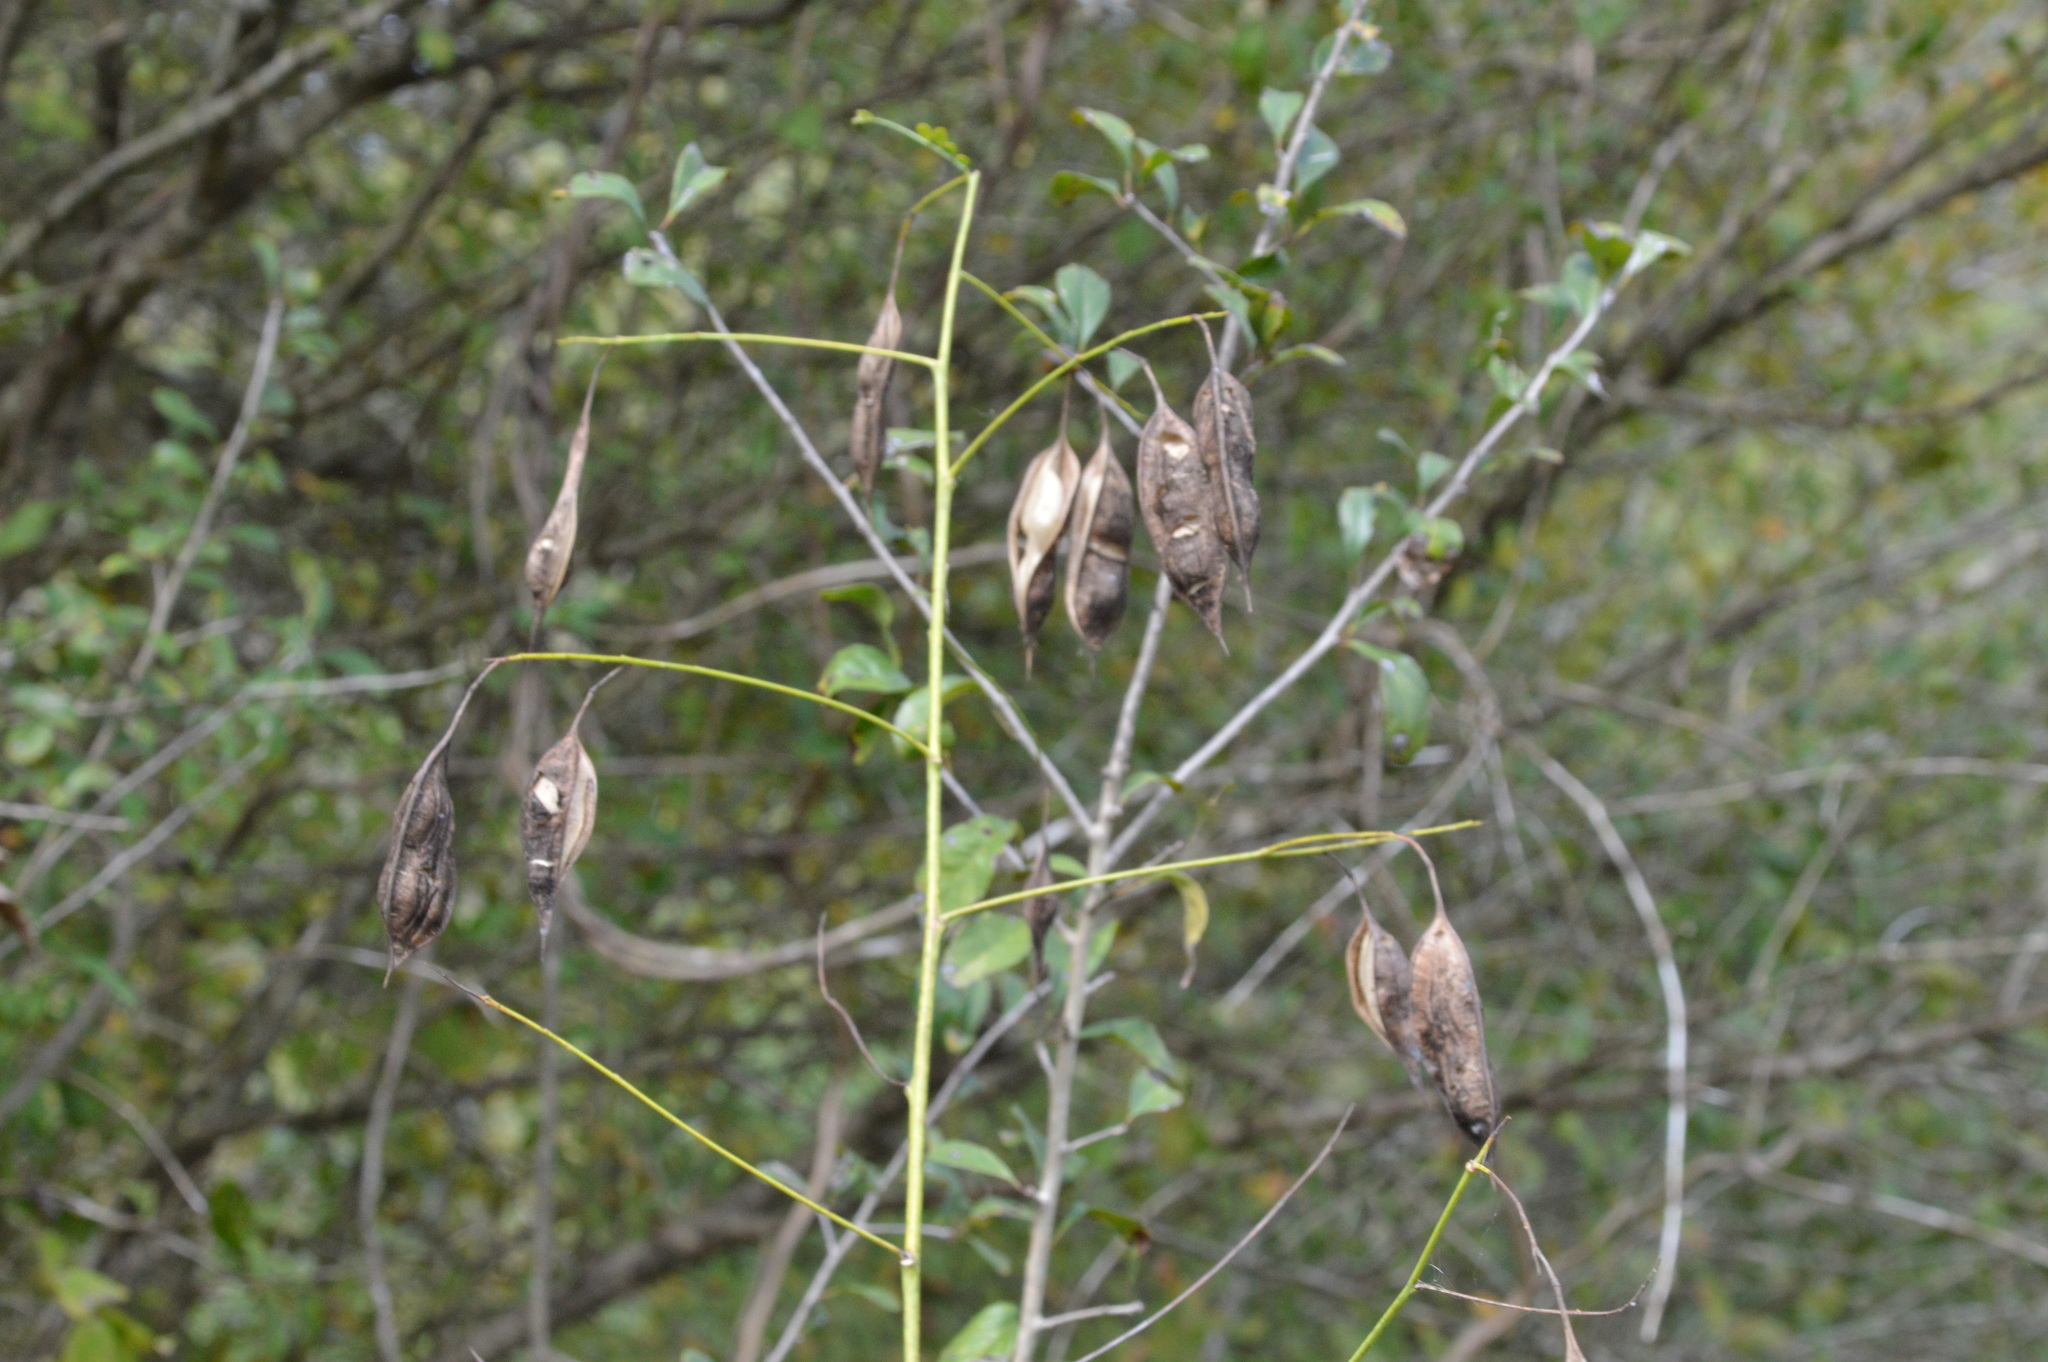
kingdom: Plantae
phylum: Tracheophyta
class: Magnoliopsida
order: Fabales
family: Fabaceae
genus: Sesbania
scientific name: Sesbania vesicaria
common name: Bagpod
